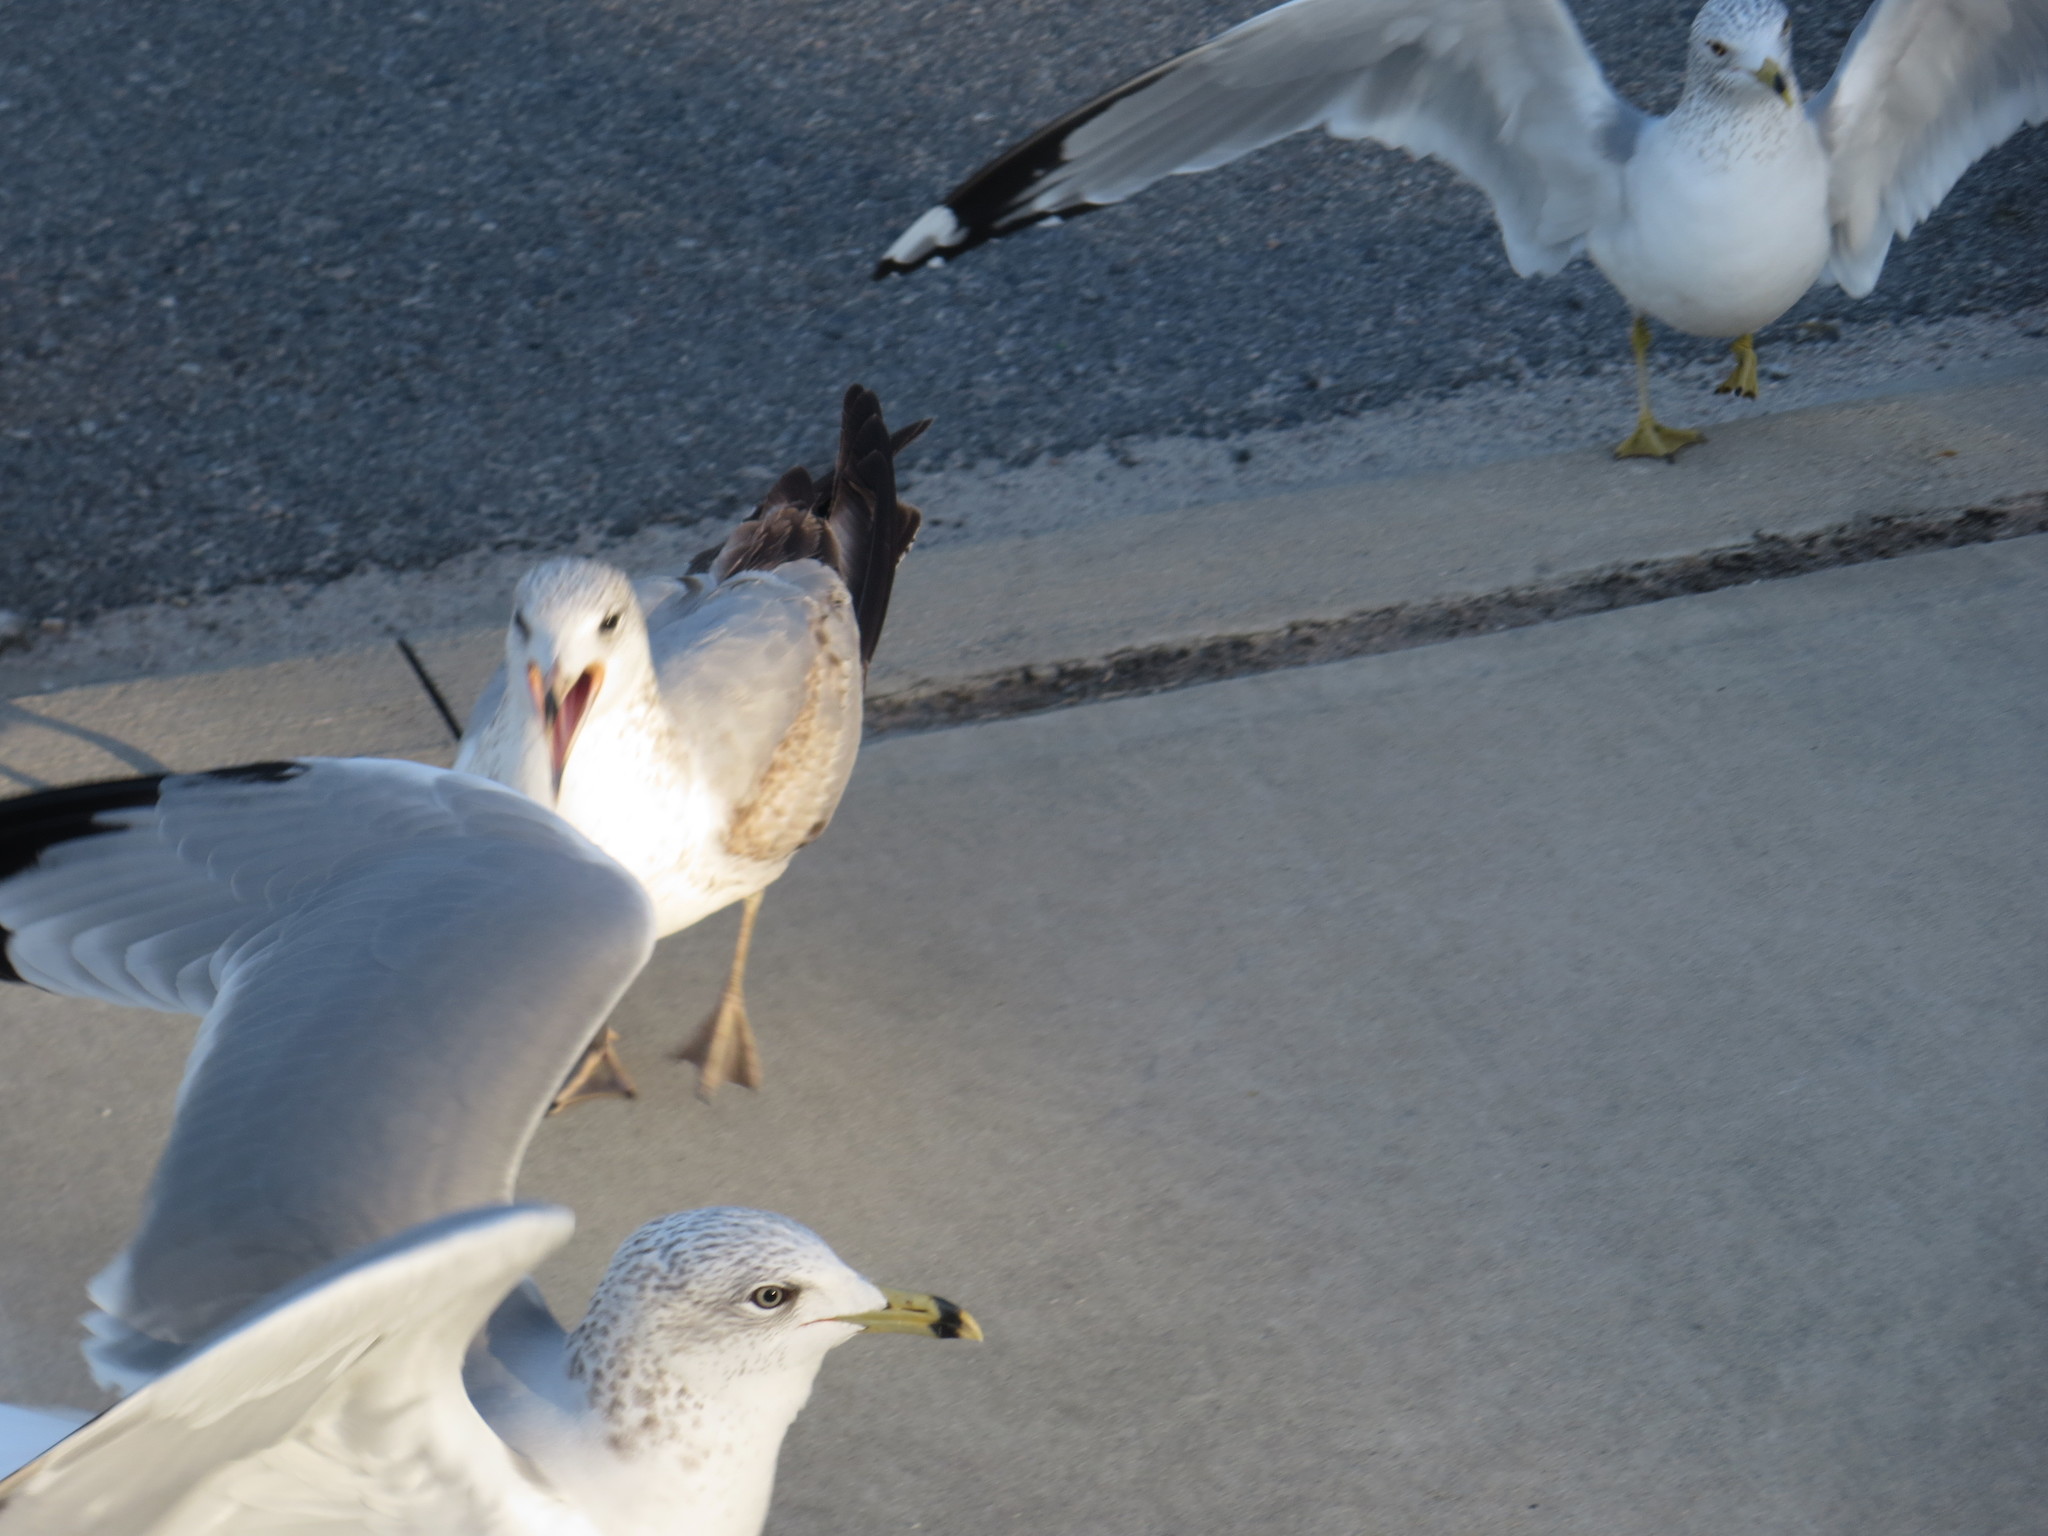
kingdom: Animalia
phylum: Chordata
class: Aves
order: Charadriiformes
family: Laridae
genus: Larus
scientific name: Larus delawarensis
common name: Ring-billed gull
